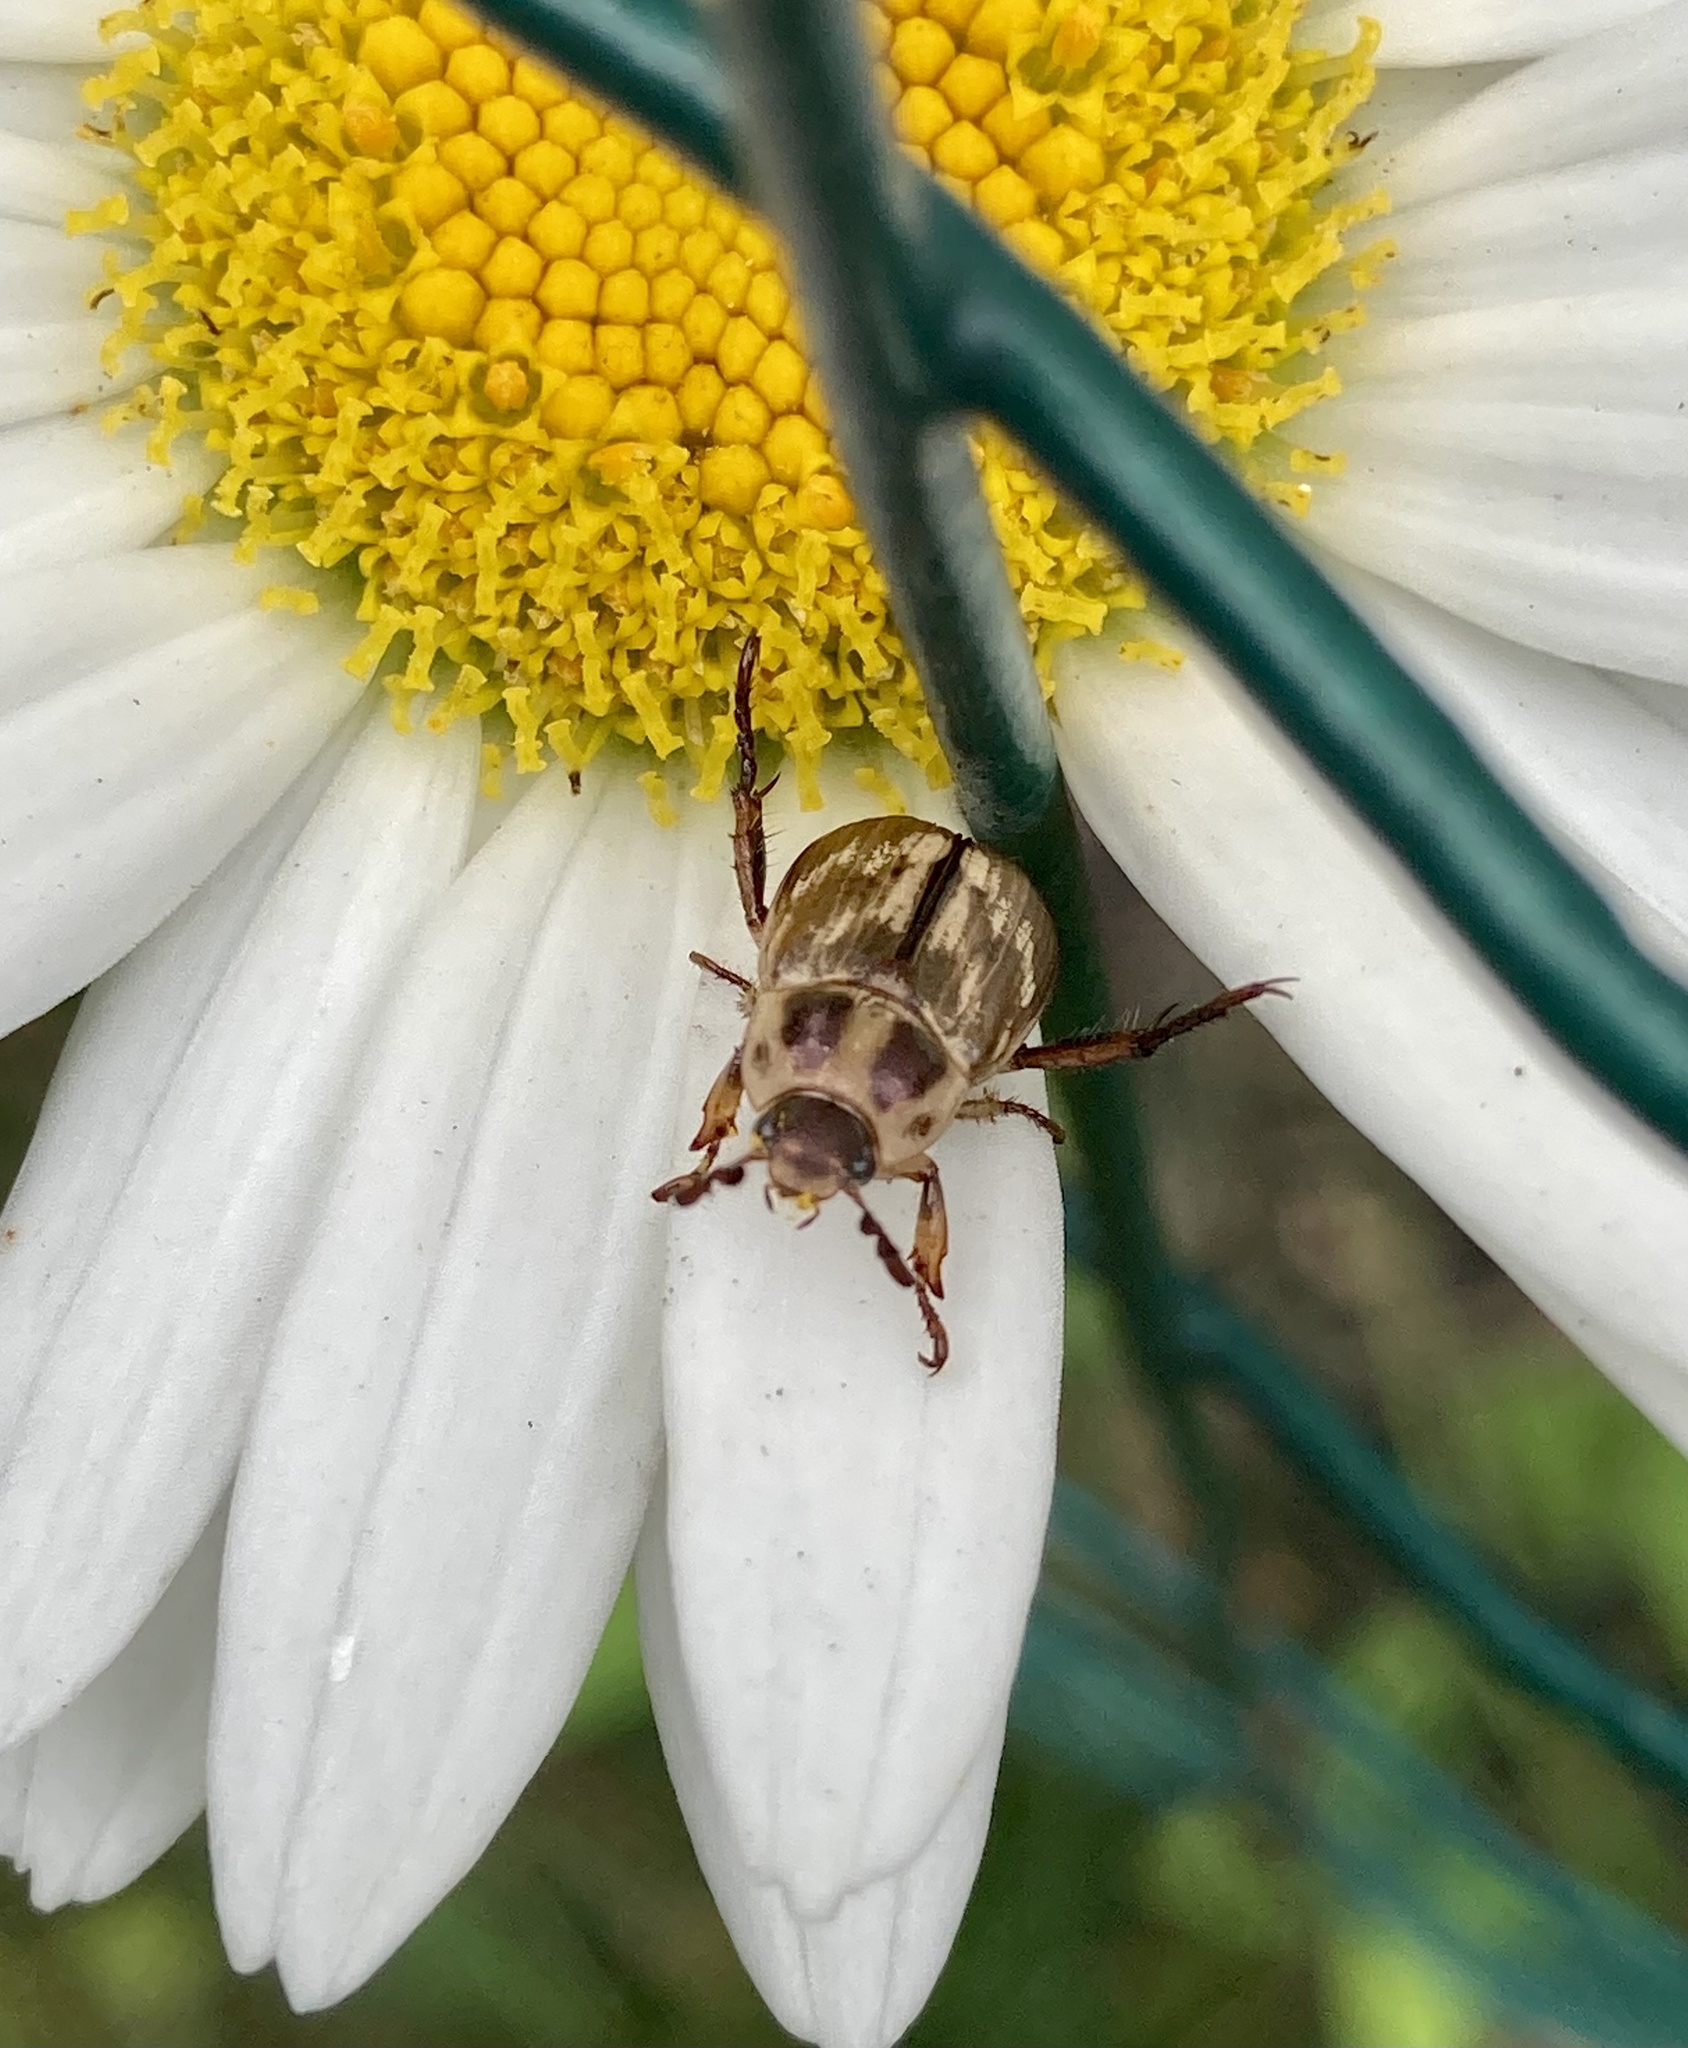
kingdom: Animalia
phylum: Arthropoda
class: Insecta
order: Coleoptera
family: Scarabaeidae
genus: Exomala
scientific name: Exomala orientalis
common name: Oriental beetle
